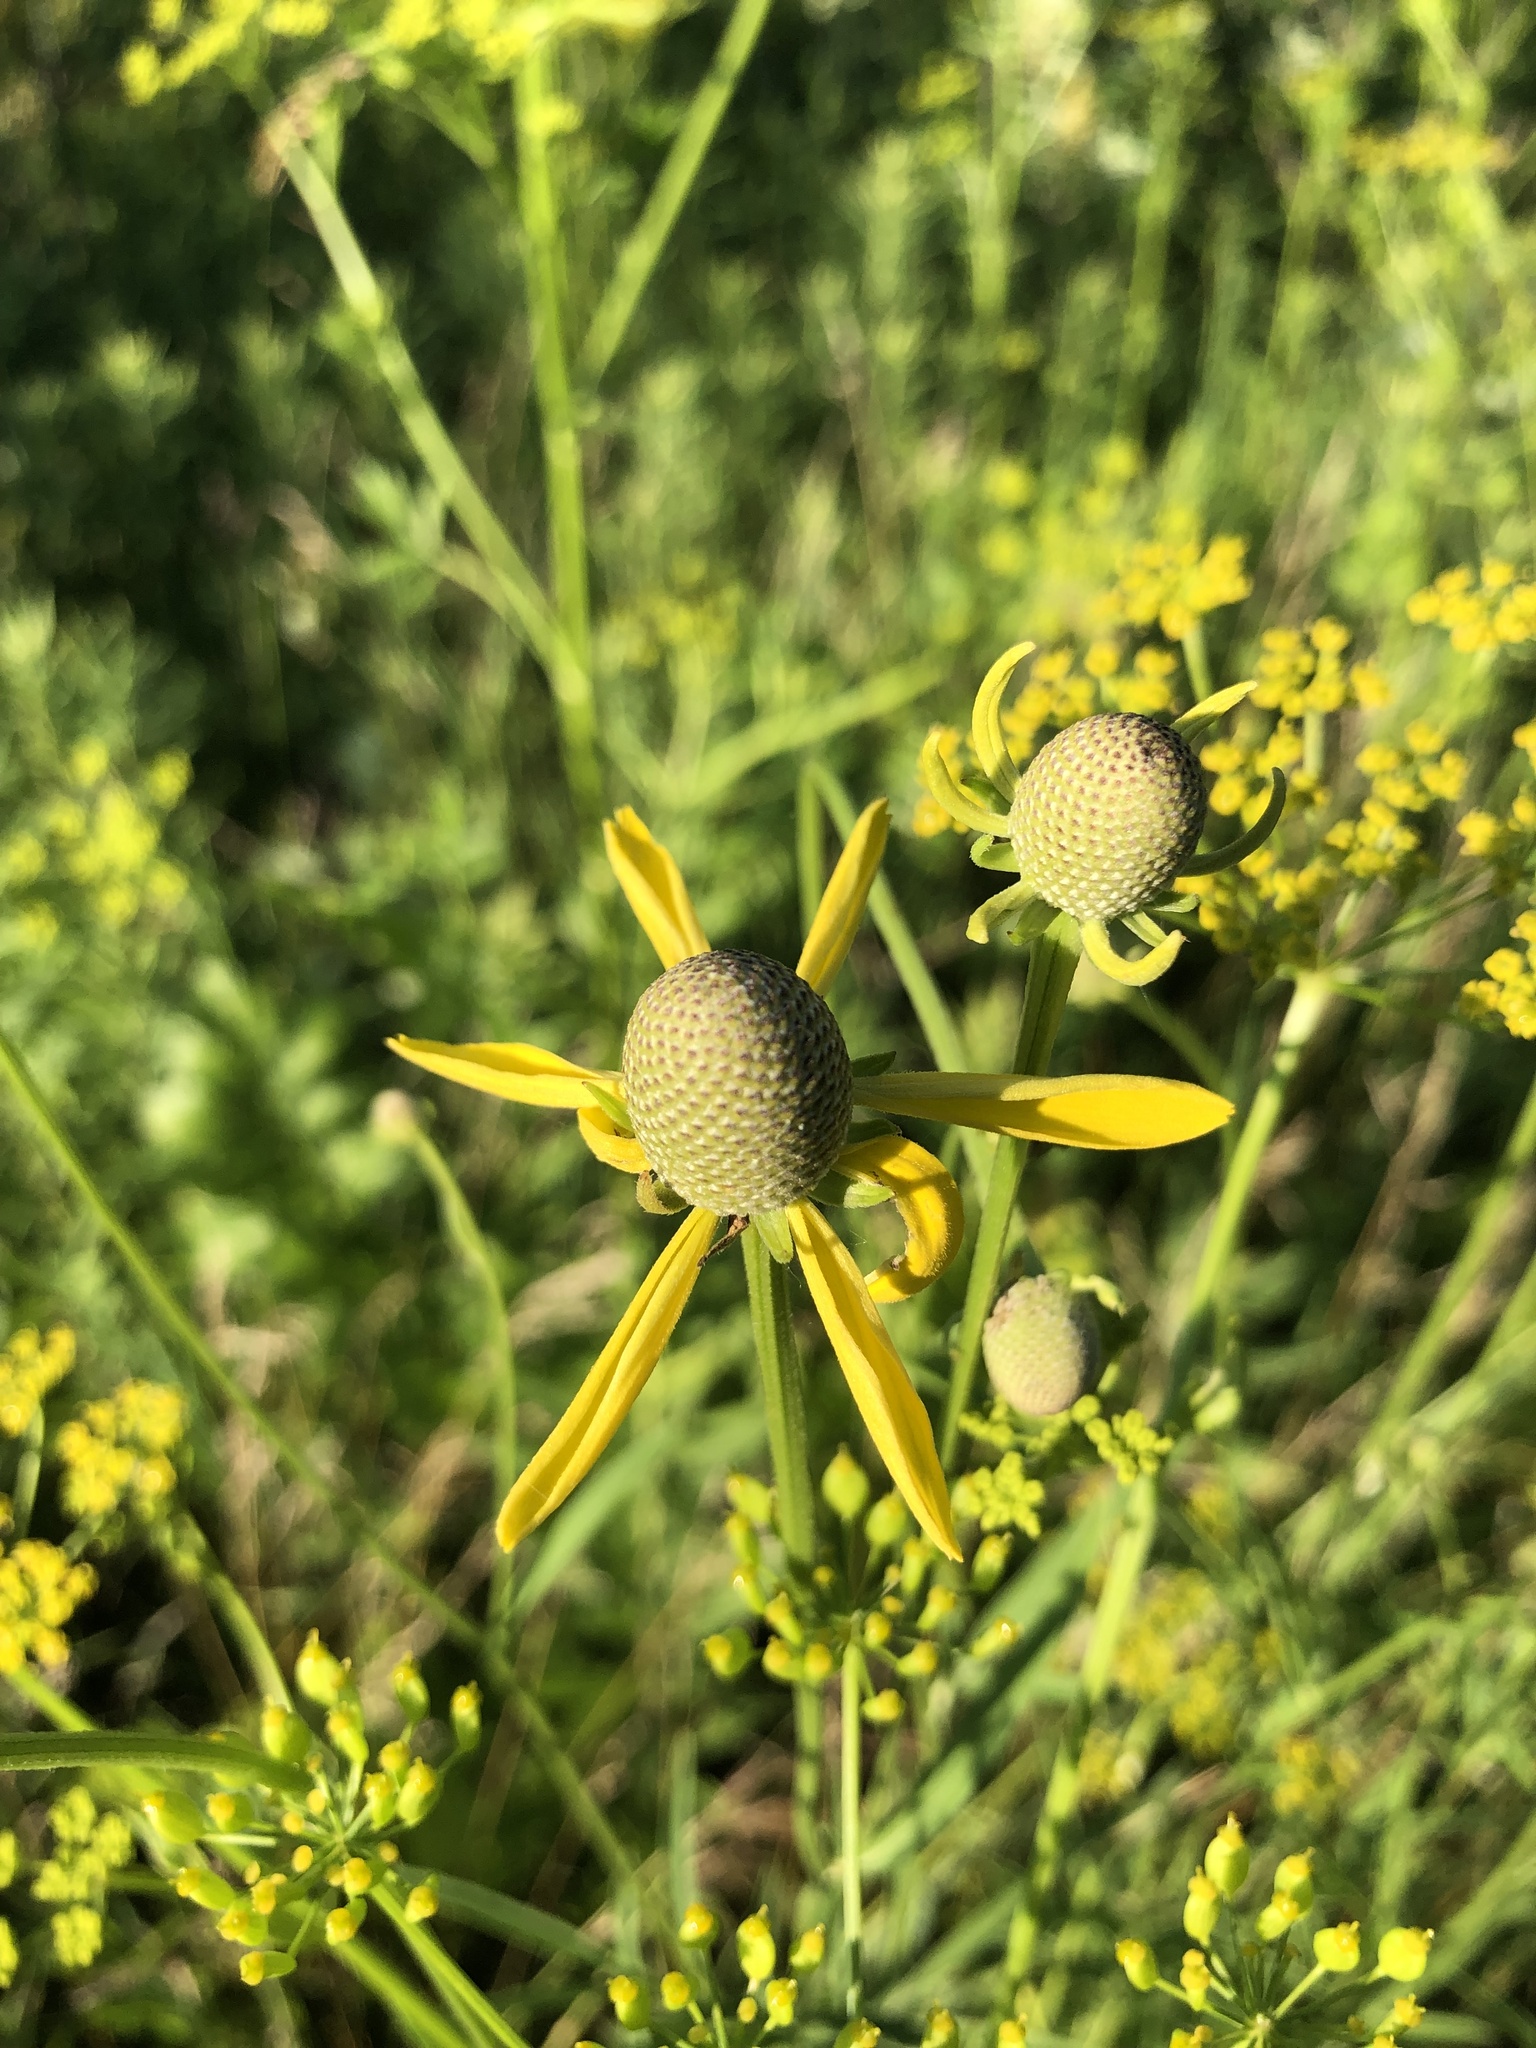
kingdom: Plantae
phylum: Tracheophyta
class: Magnoliopsida
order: Asterales
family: Asteraceae
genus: Ratibida
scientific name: Ratibida pinnata
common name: Drooping prairie-coneflower
